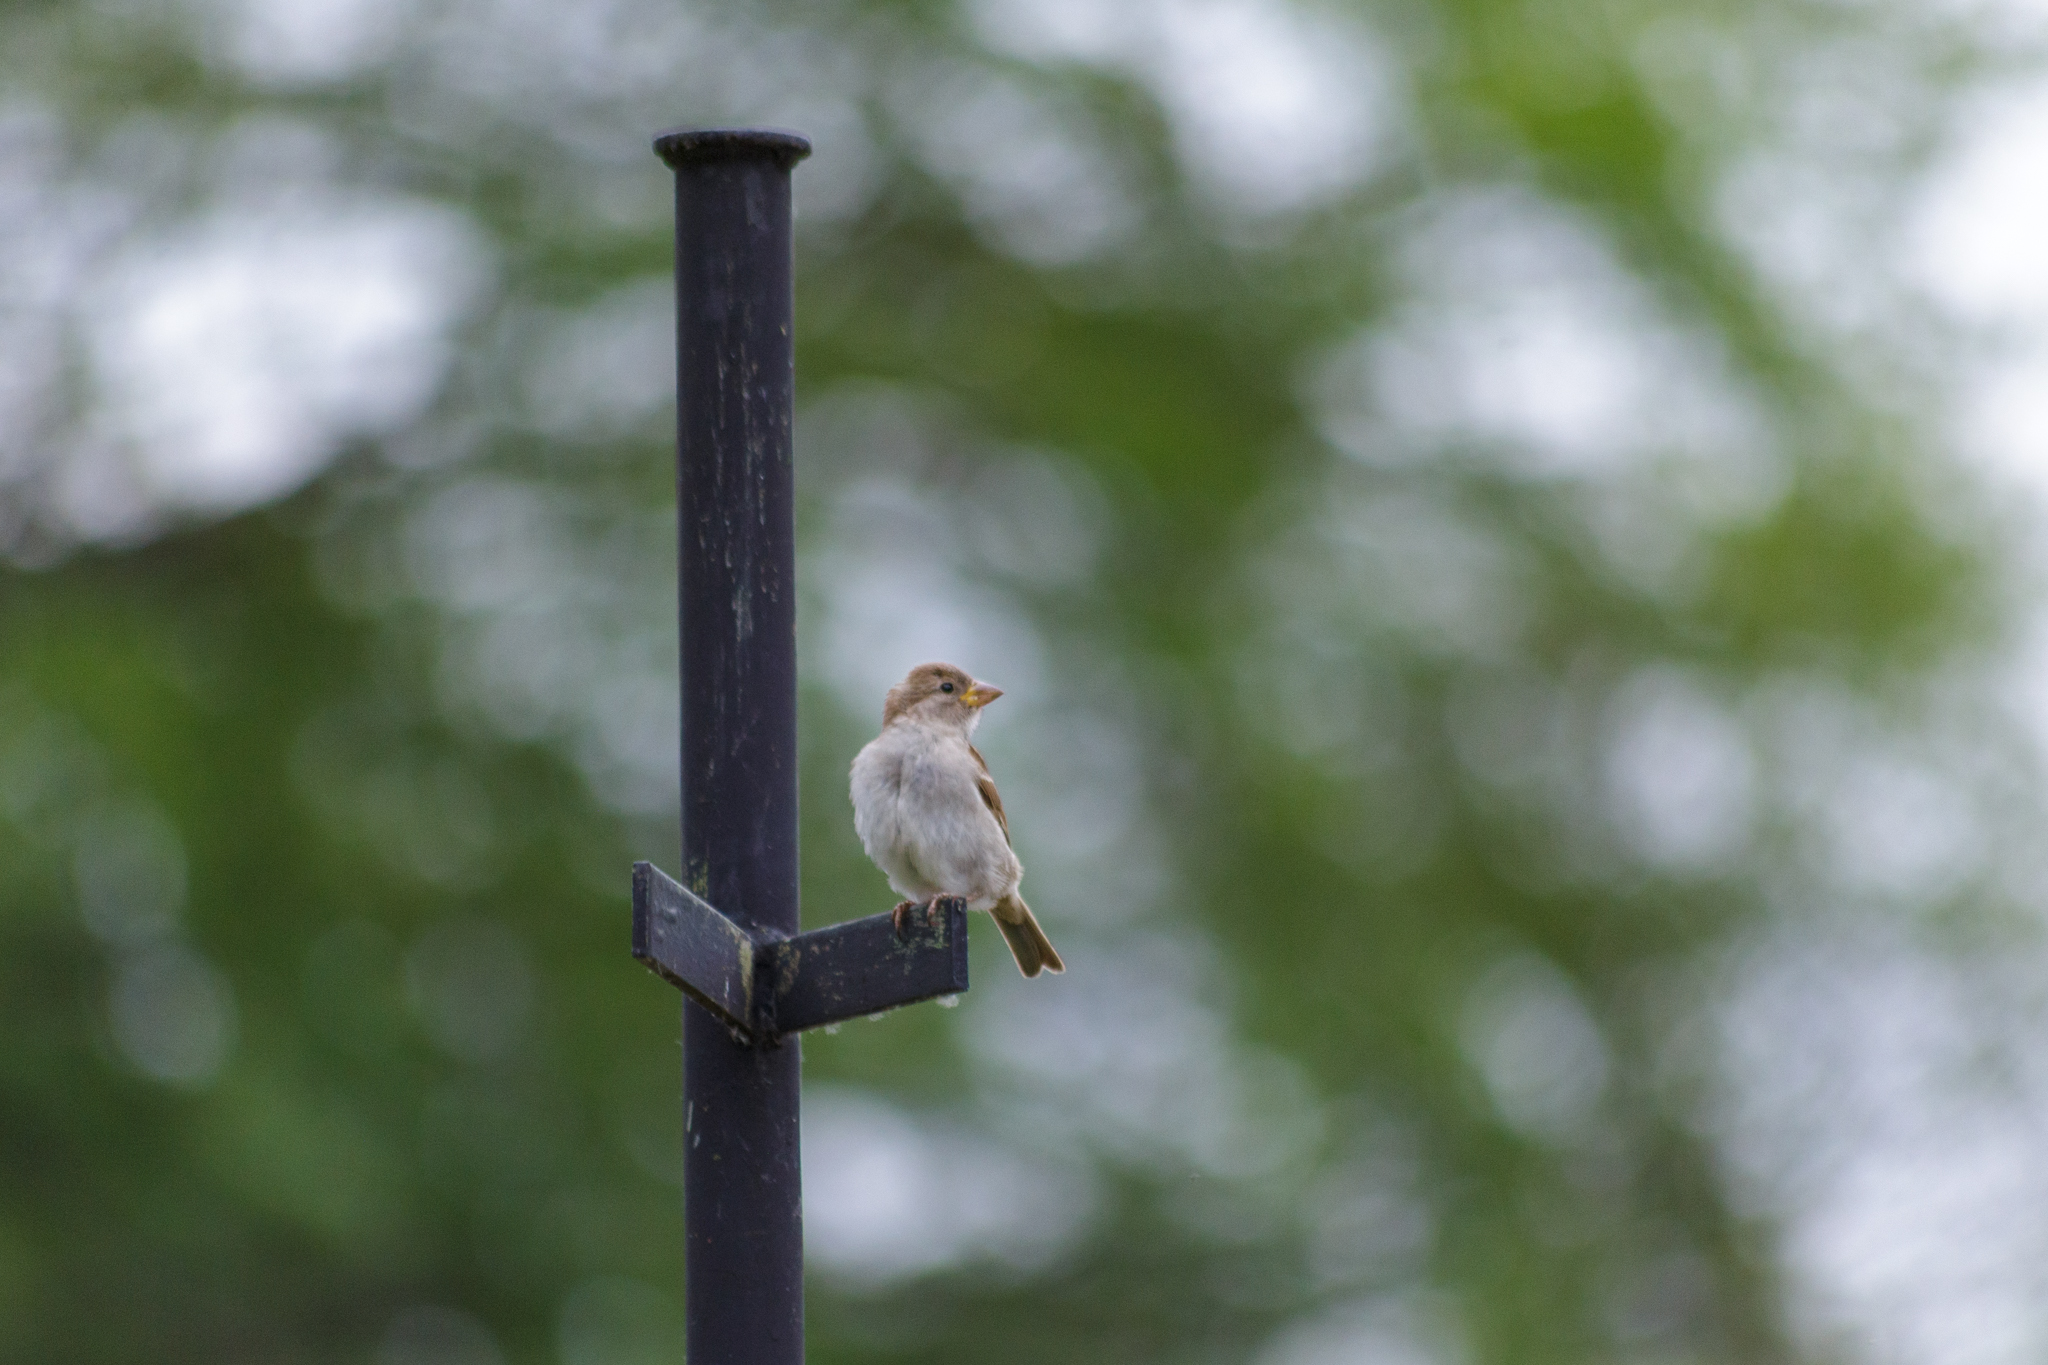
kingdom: Animalia
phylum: Chordata
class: Aves
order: Passeriformes
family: Passeridae
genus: Passer
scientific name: Passer domesticus
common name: House sparrow
